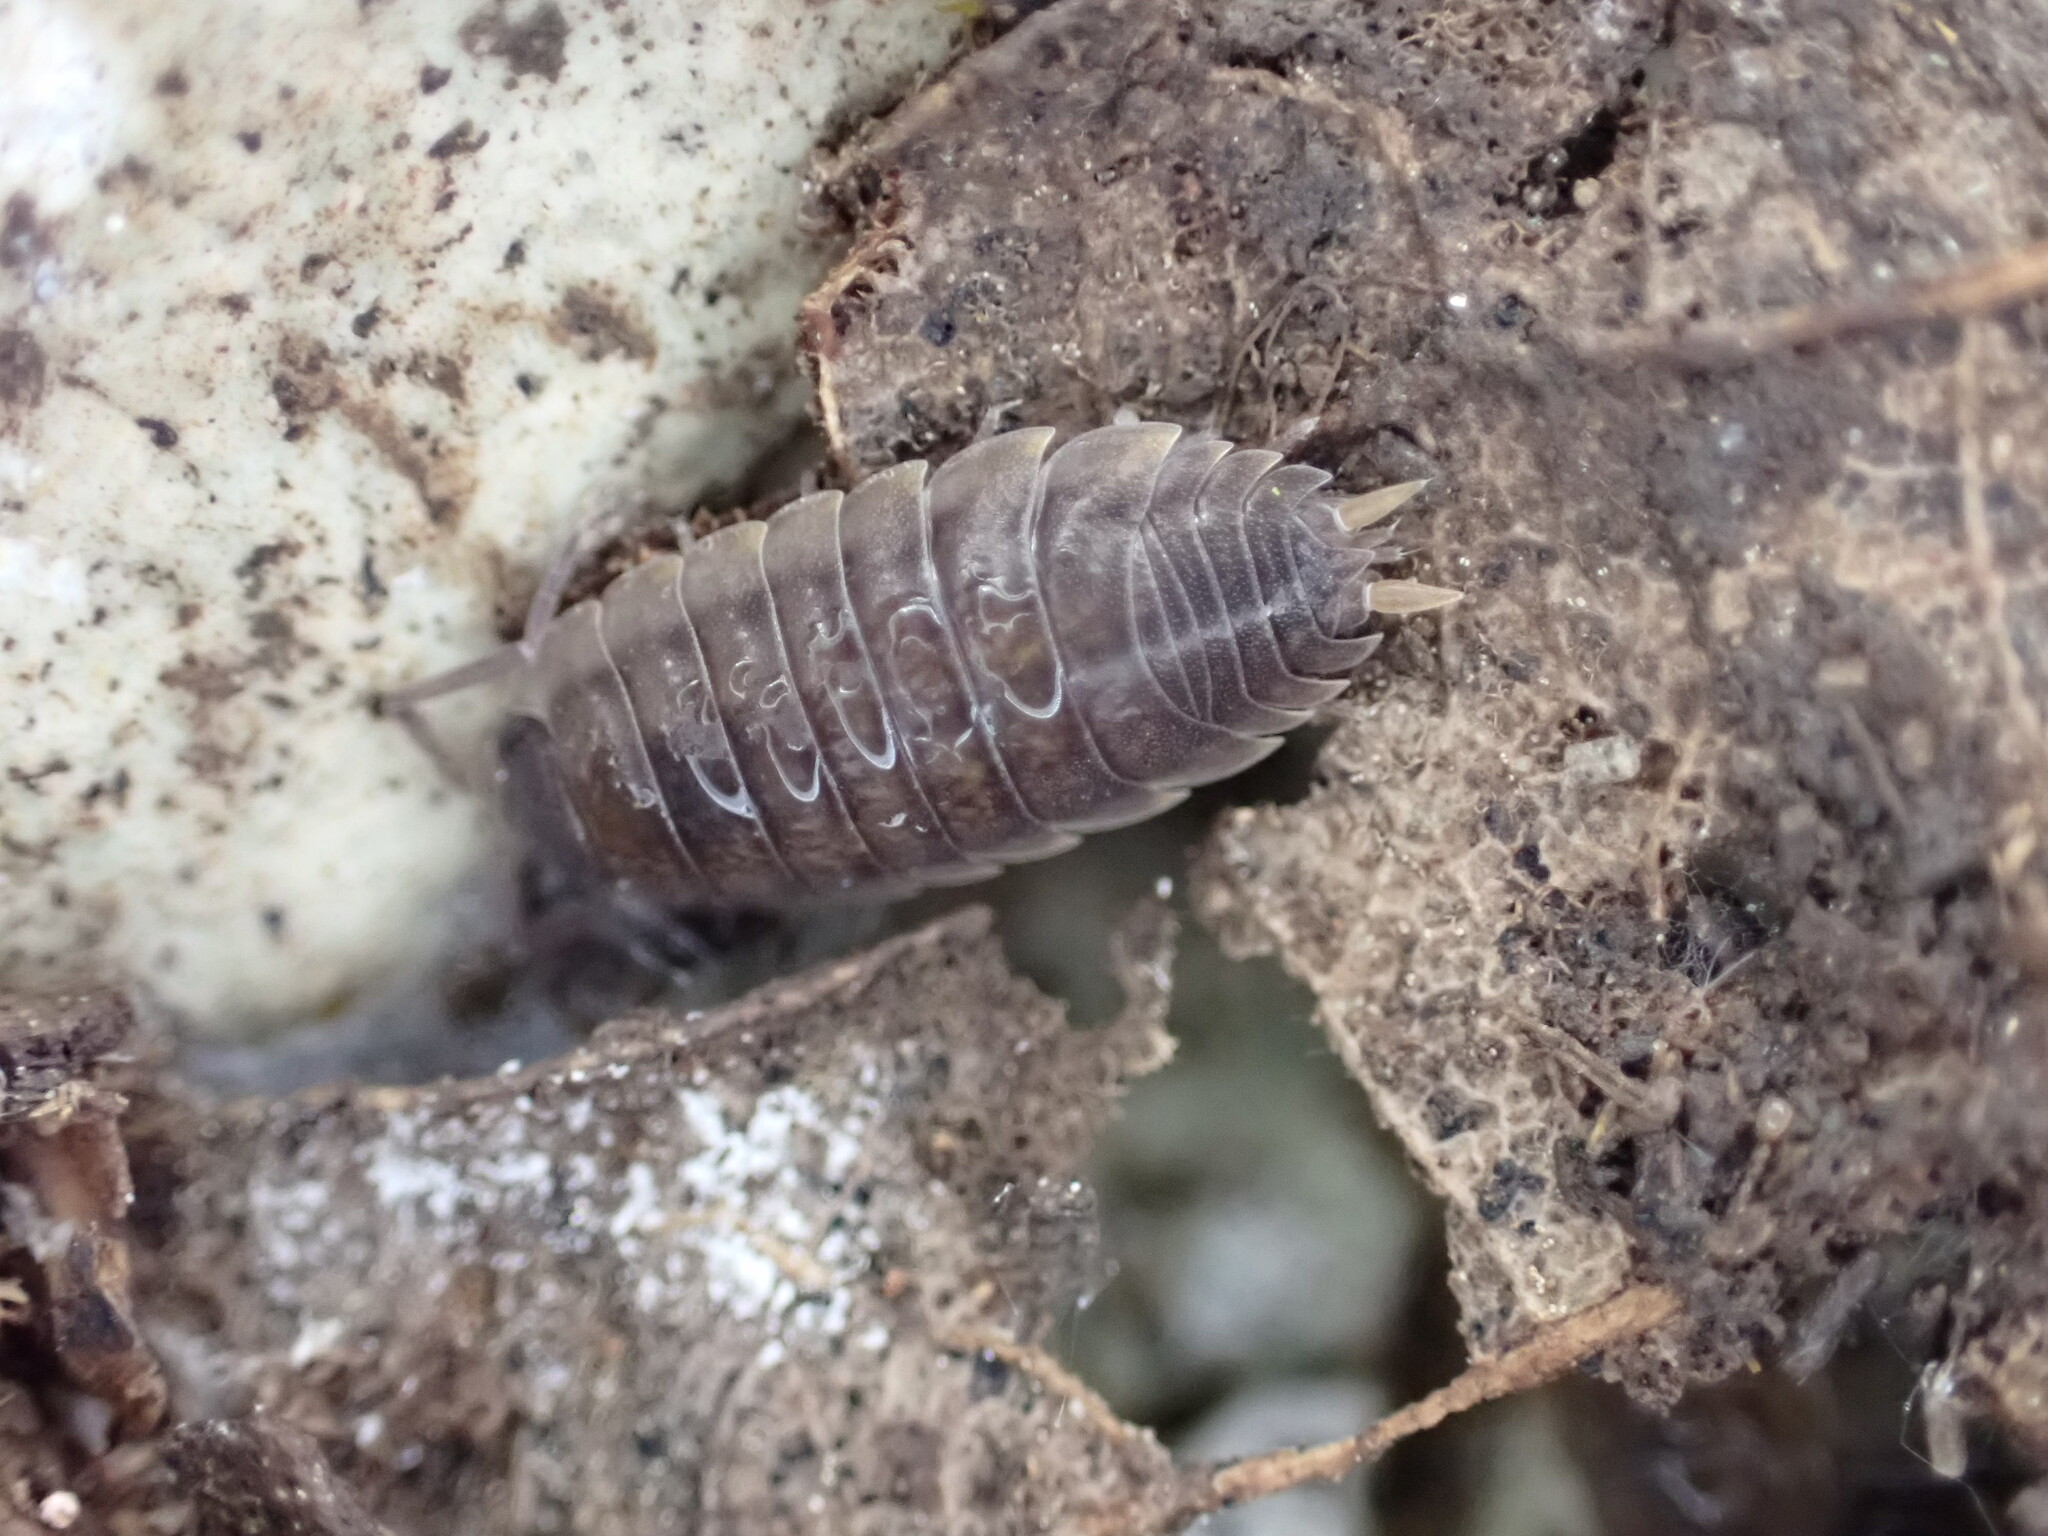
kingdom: Animalia
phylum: Arthropoda
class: Malacostraca
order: Isopoda
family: Porcellionidae
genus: Porcellio
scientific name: Porcellio orarum
